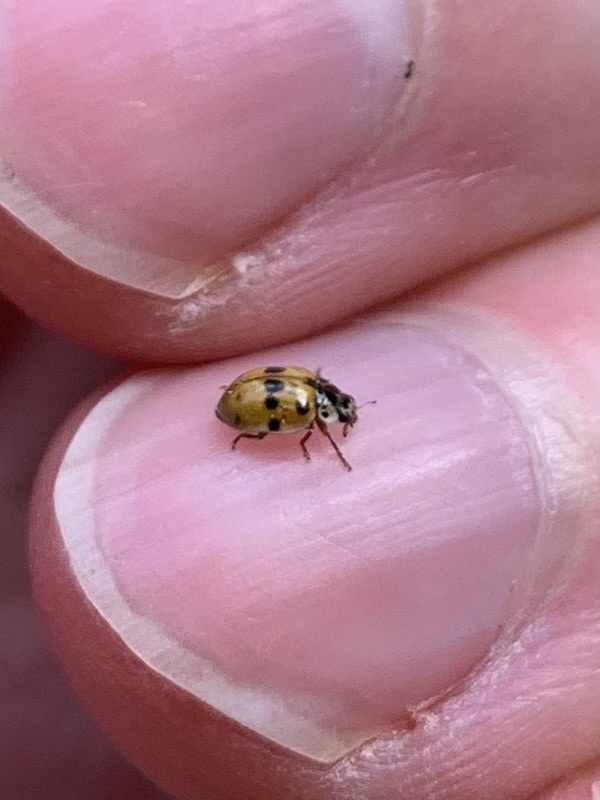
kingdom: Animalia
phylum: Arthropoda
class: Insecta
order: Coleoptera
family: Coccinellidae
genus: Adalia
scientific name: Adalia decempunctata
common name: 10-spot ladybird
